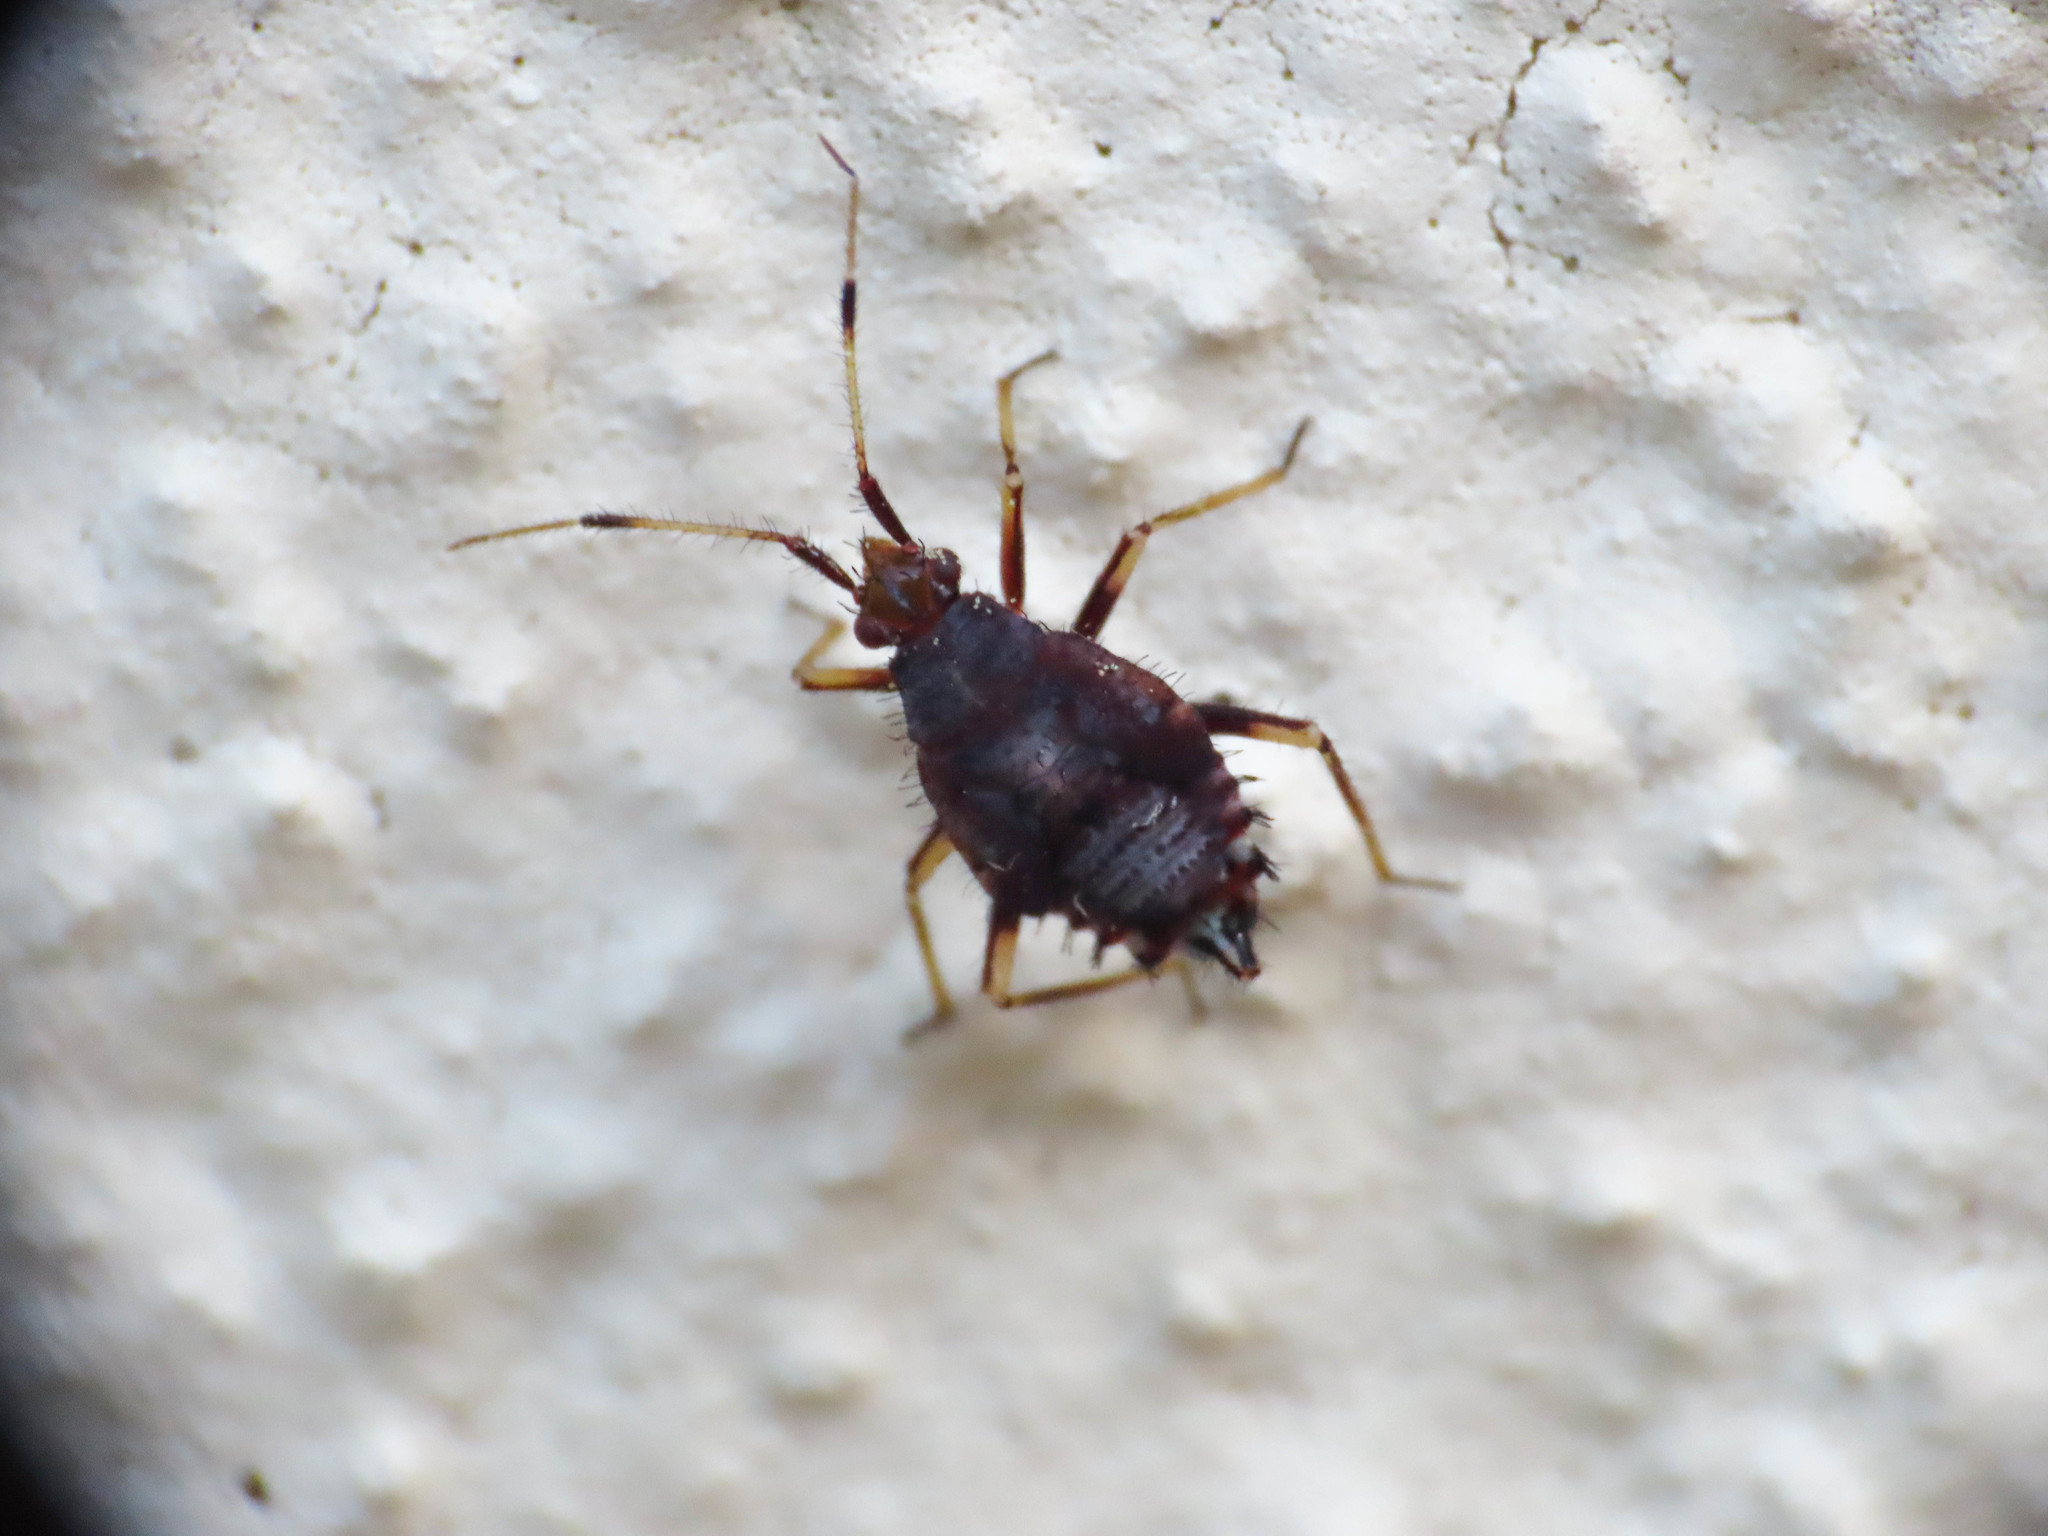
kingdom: Animalia
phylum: Arthropoda
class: Insecta
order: Hemiptera
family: Miridae
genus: Deraeocoris
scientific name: Deraeocoris ruber
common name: Plant bug
